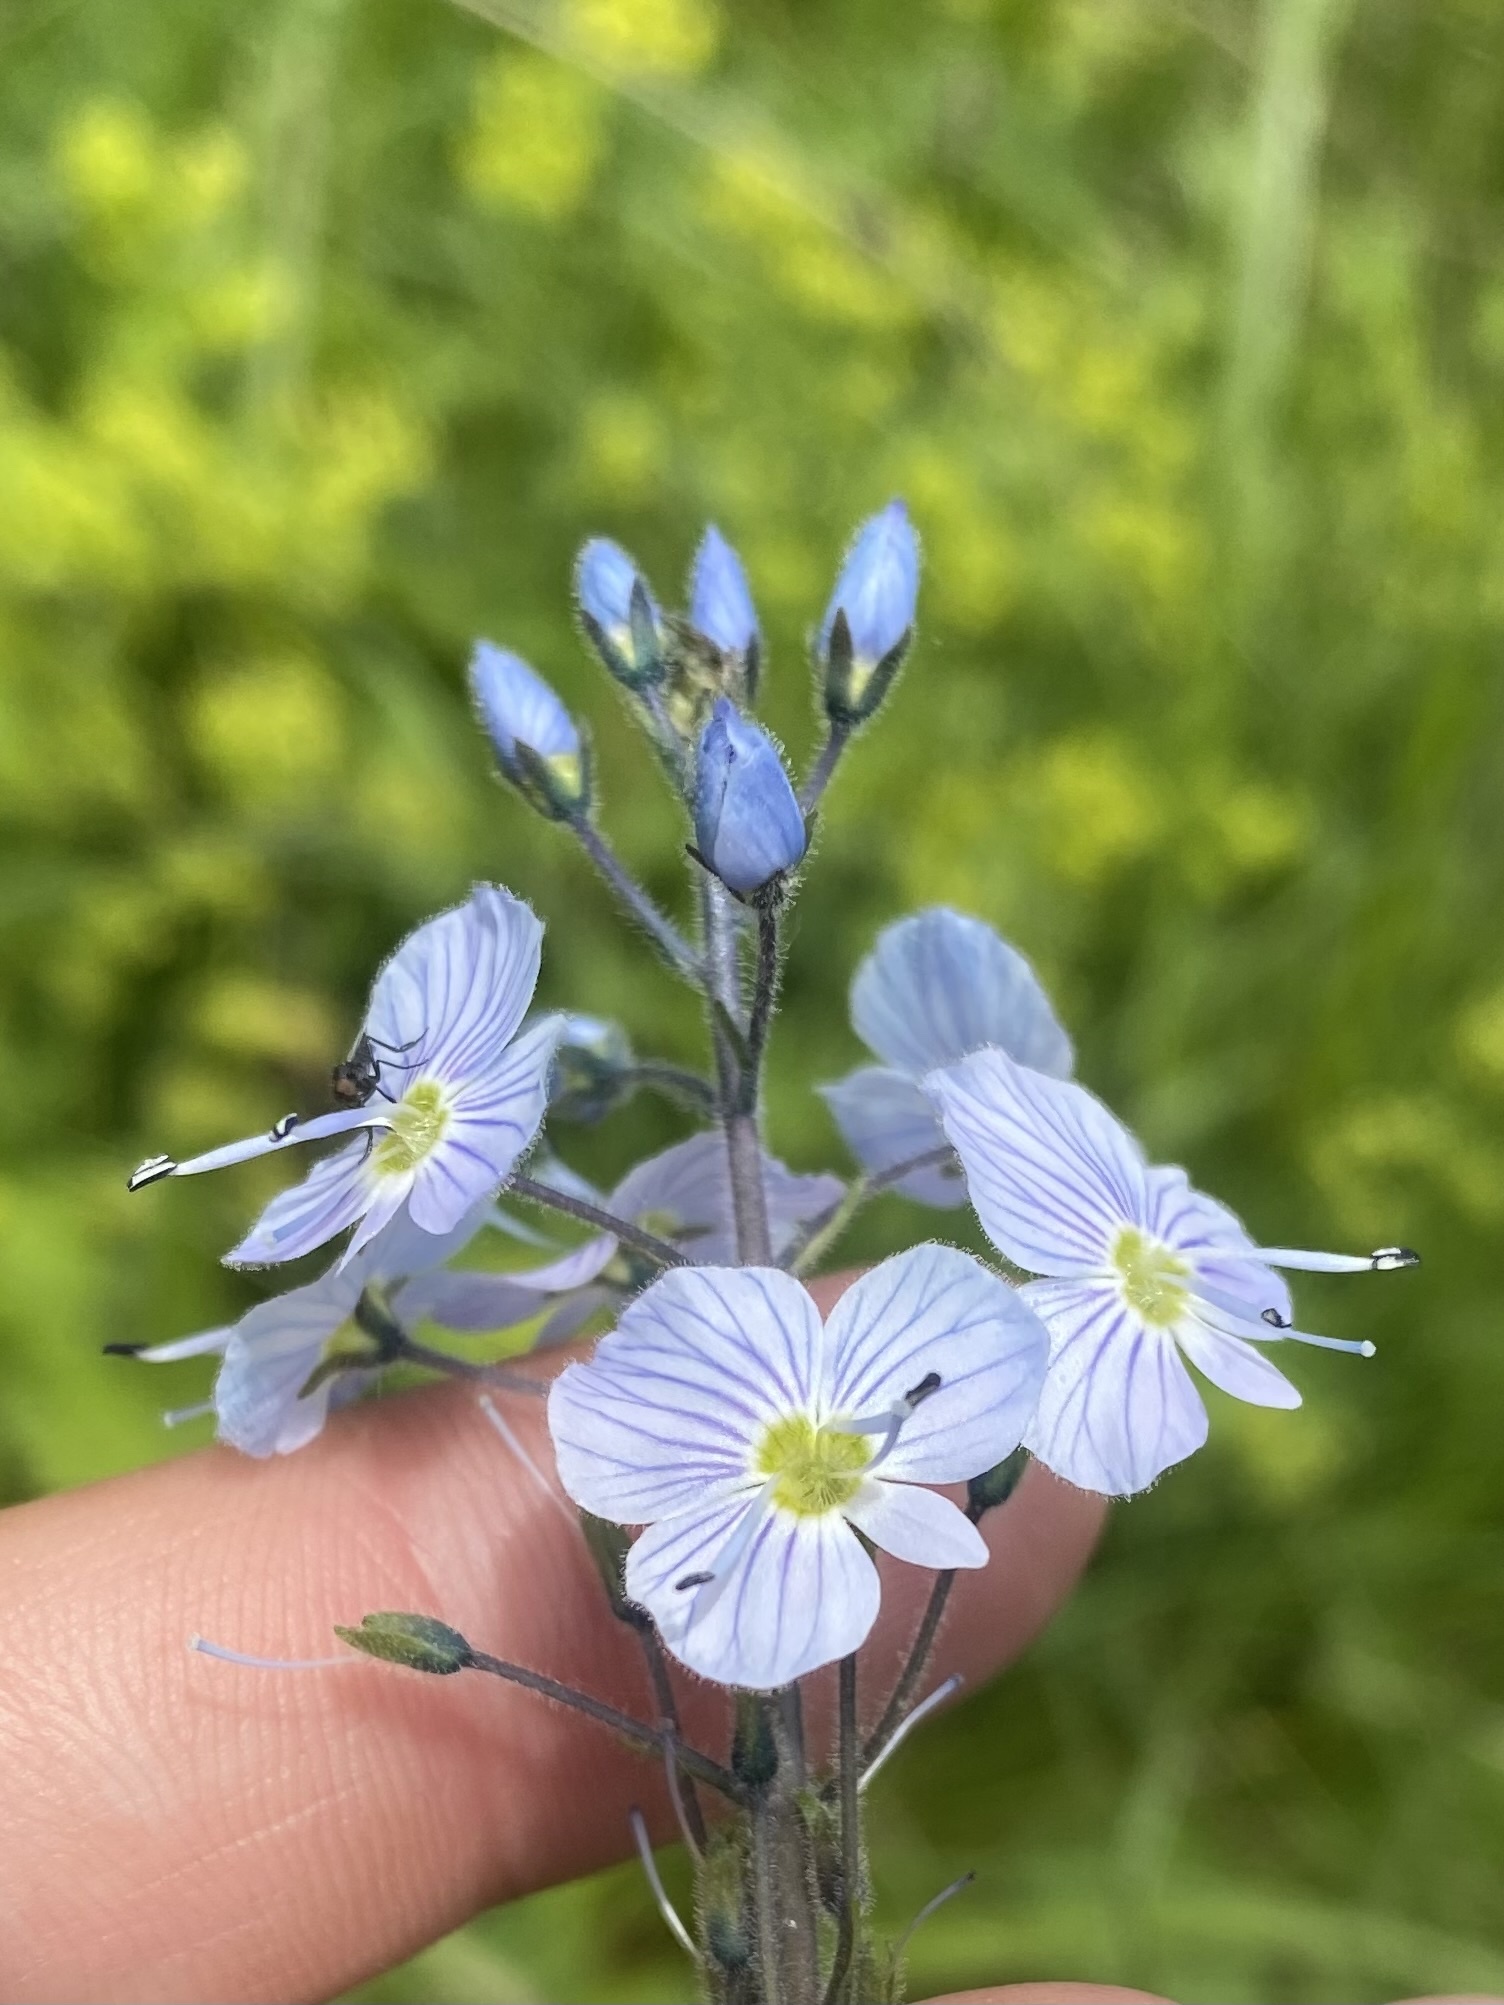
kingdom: Plantae
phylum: Tracheophyta
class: Magnoliopsida
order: Lamiales
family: Plantaginaceae
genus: Veronica
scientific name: Veronica gentianoides
